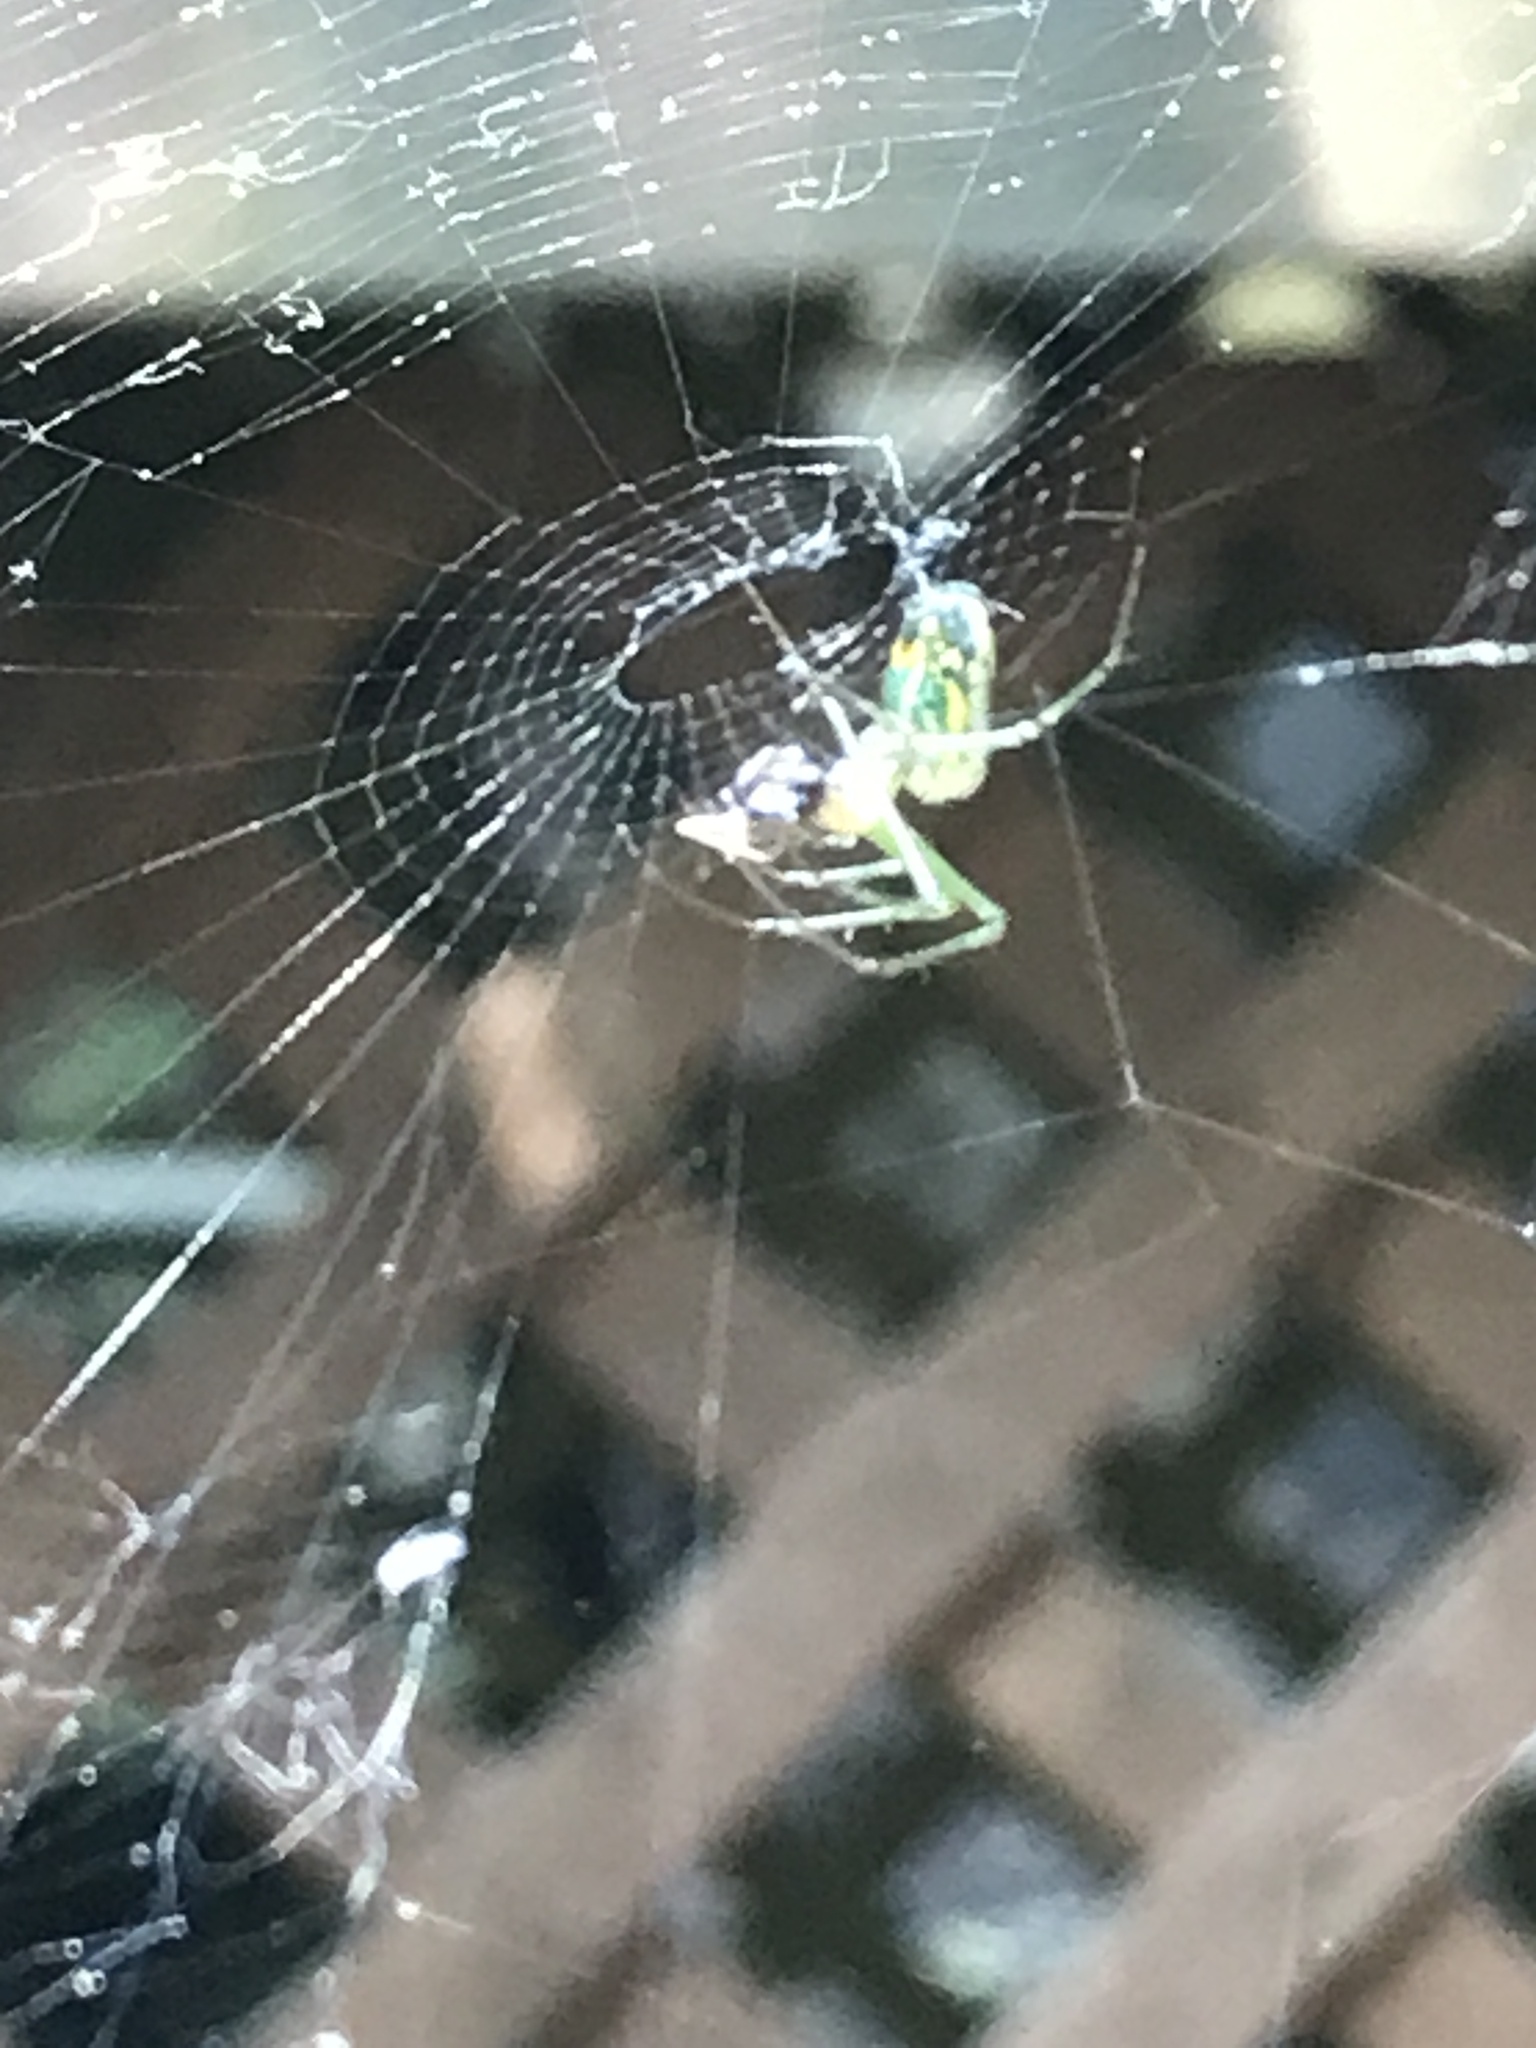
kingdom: Animalia
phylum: Arthropoda
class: Arachnida
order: Araneae
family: Tetragnathidae
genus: Leucauge
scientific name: Leucauge venusta
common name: Longjawed orb weavers
